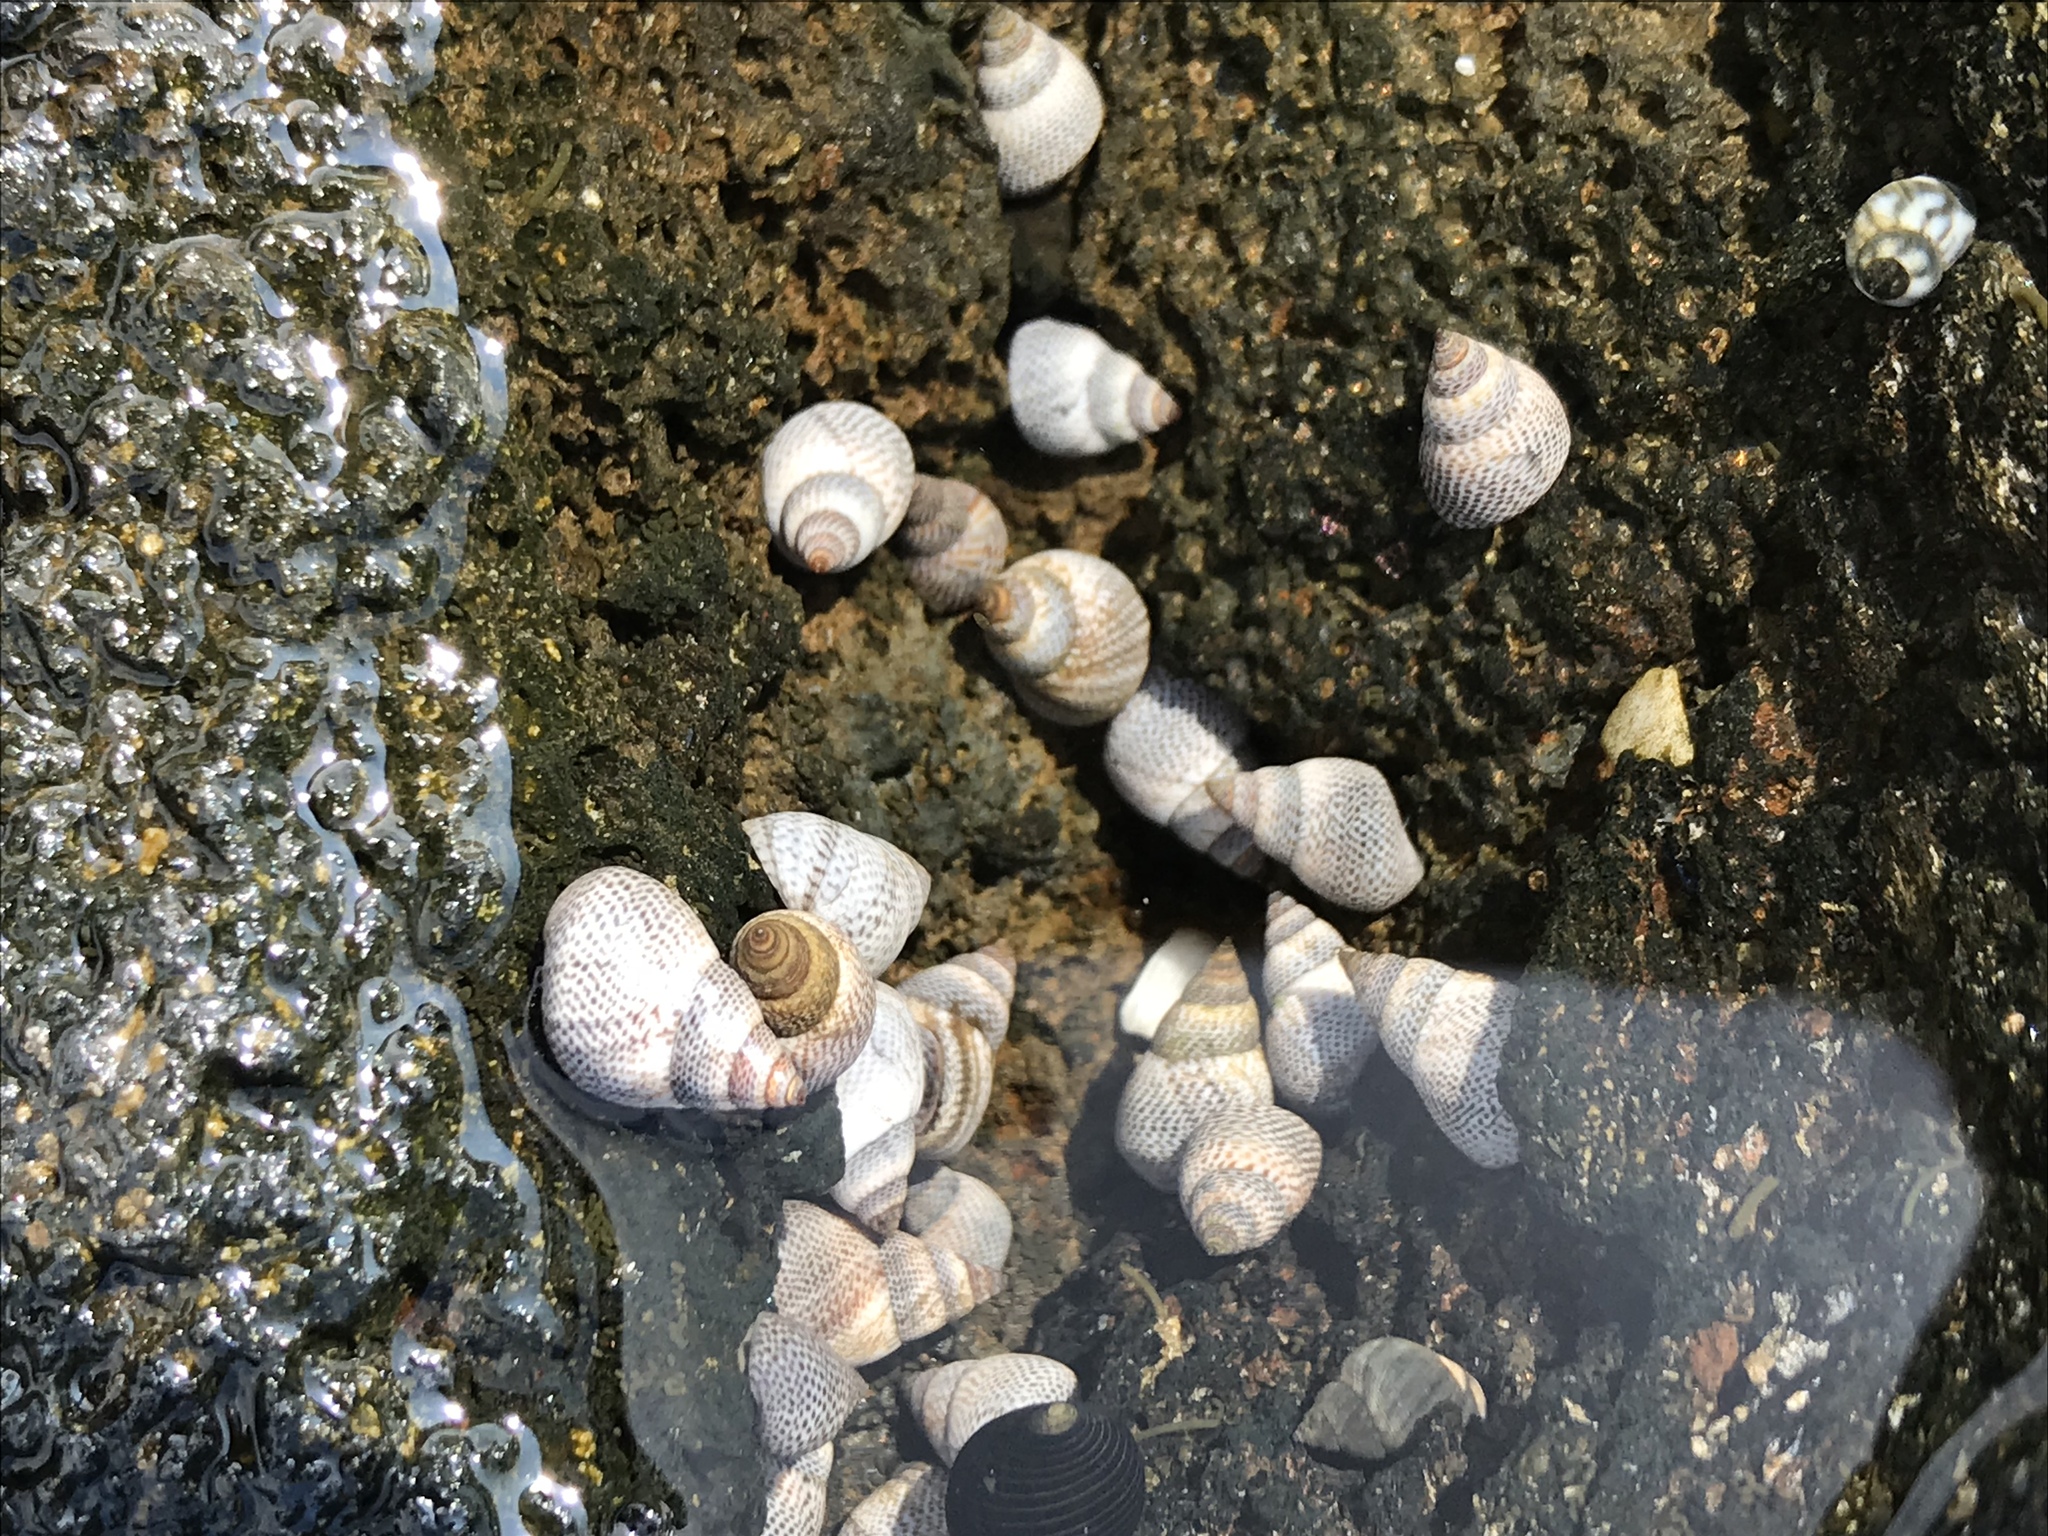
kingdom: Animalia
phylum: Mollusca
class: Gastropoda
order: Littorinimorpha
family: Littorinidae
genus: Littoraria
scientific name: Littoraria pintado
